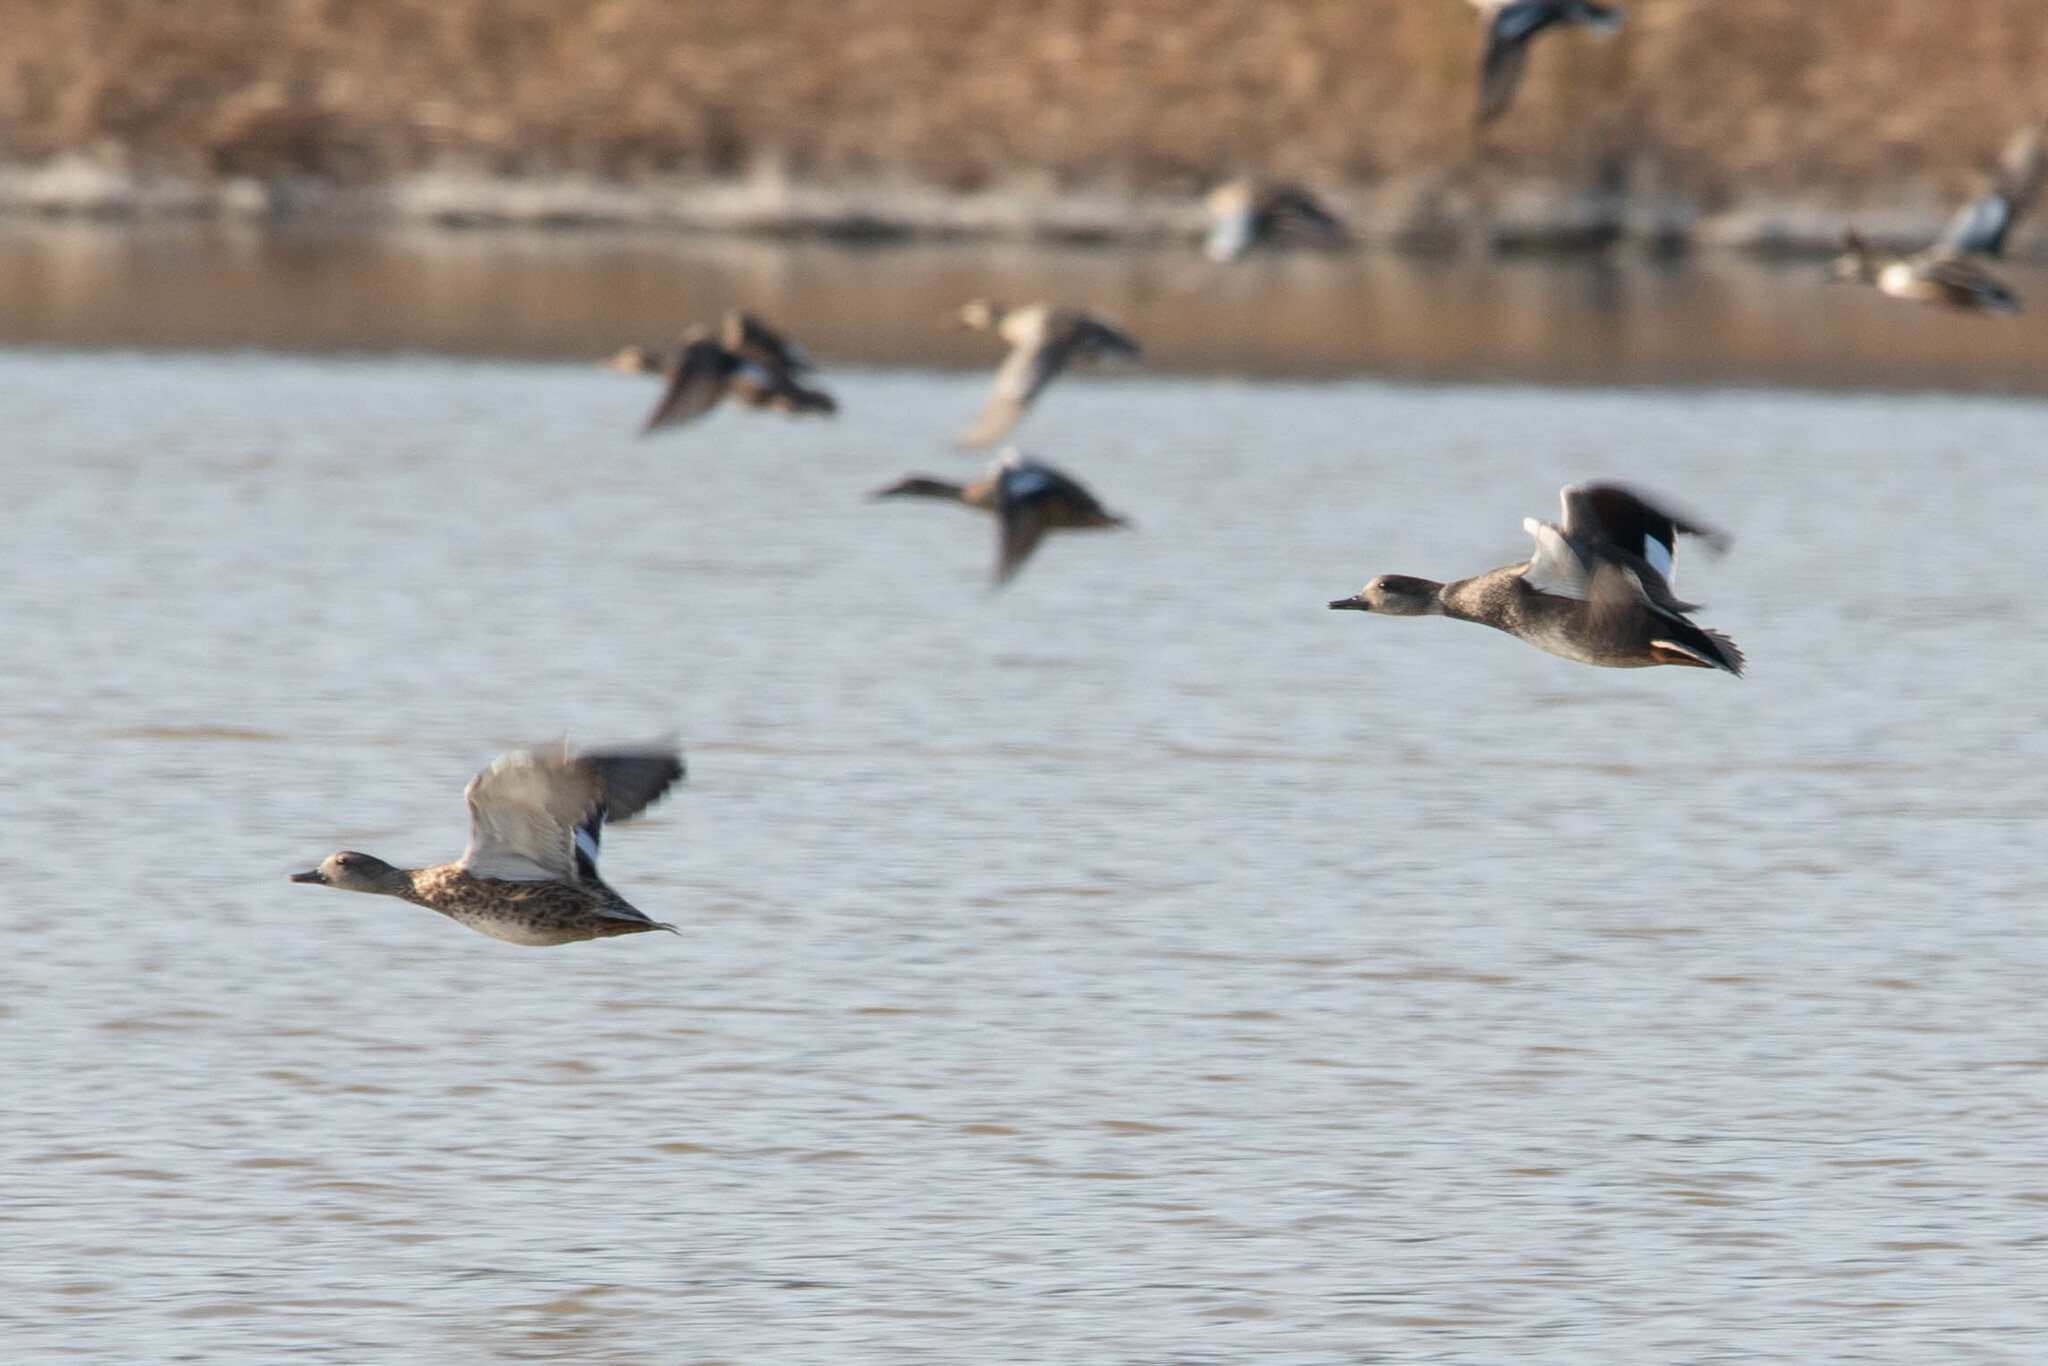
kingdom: Animalia
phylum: Chordata
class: Aves
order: Anseriformes
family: Anatidae
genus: Mareca
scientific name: Mareca strepera
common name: Gadwall
